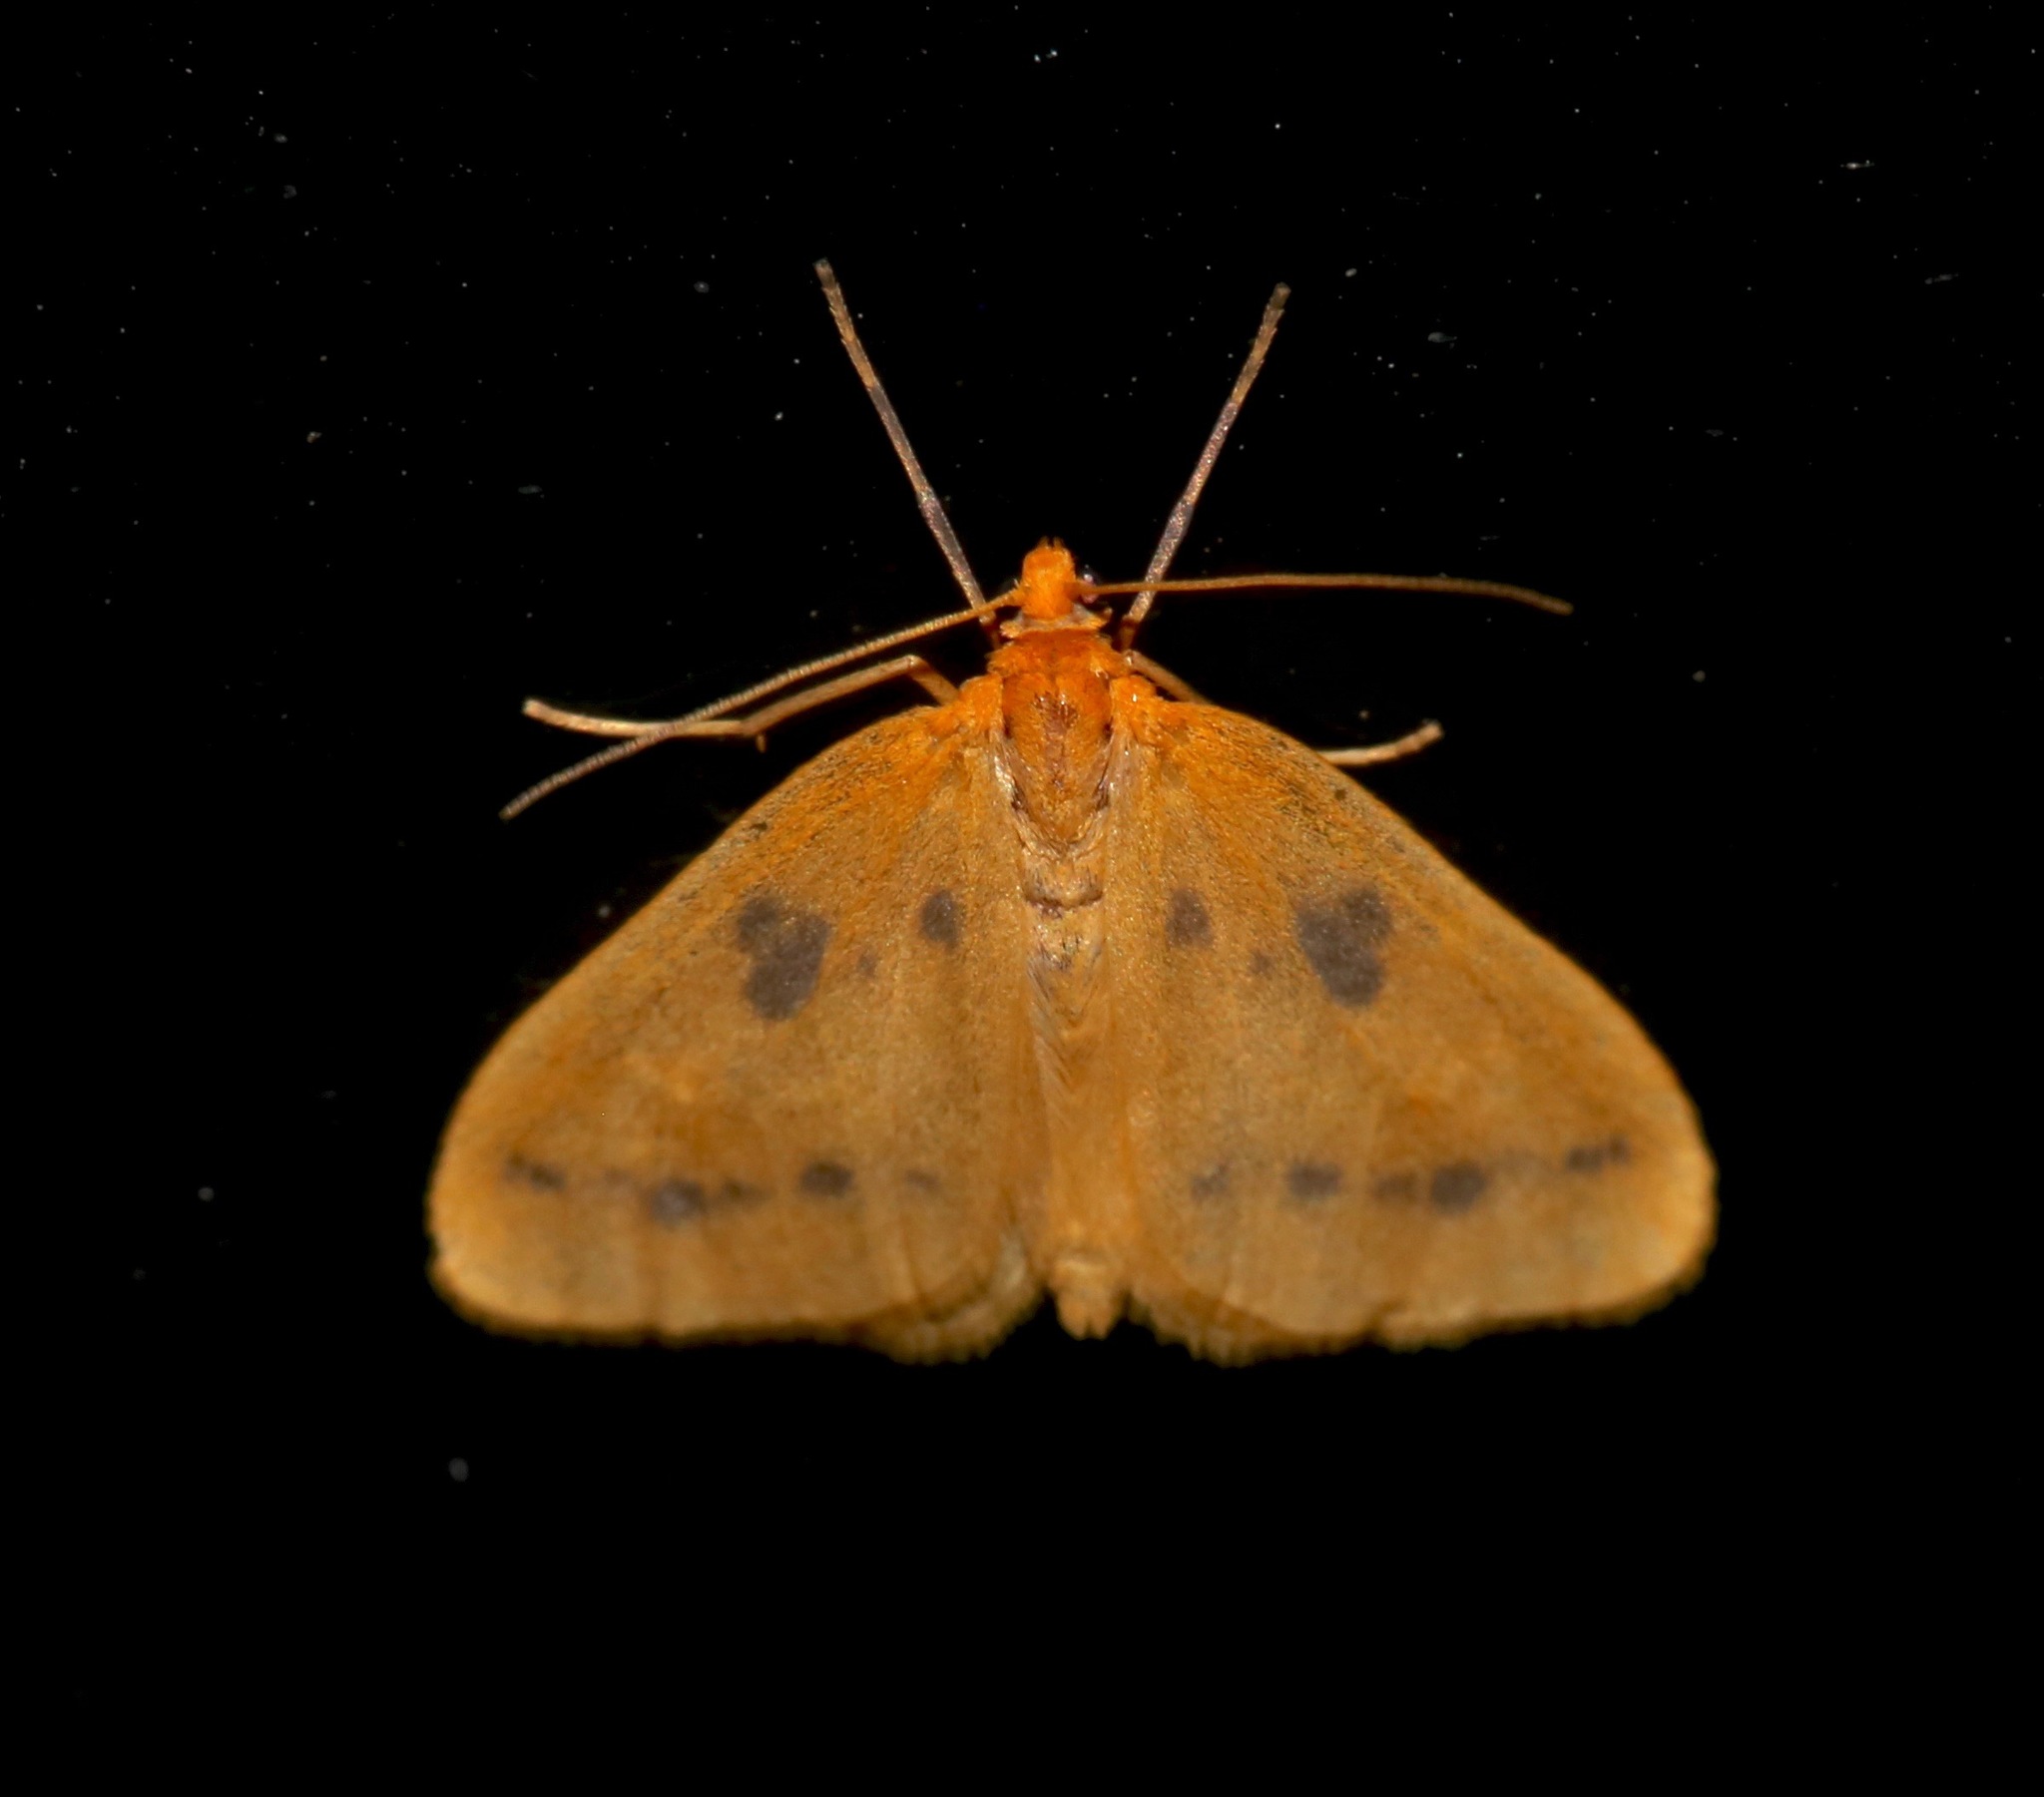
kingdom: Animalia
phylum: Arthropoda
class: Insecta
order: Lepidoptera
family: Geometridae
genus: Eubaphe
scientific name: Eubaphe meridiana
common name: Little beggar
